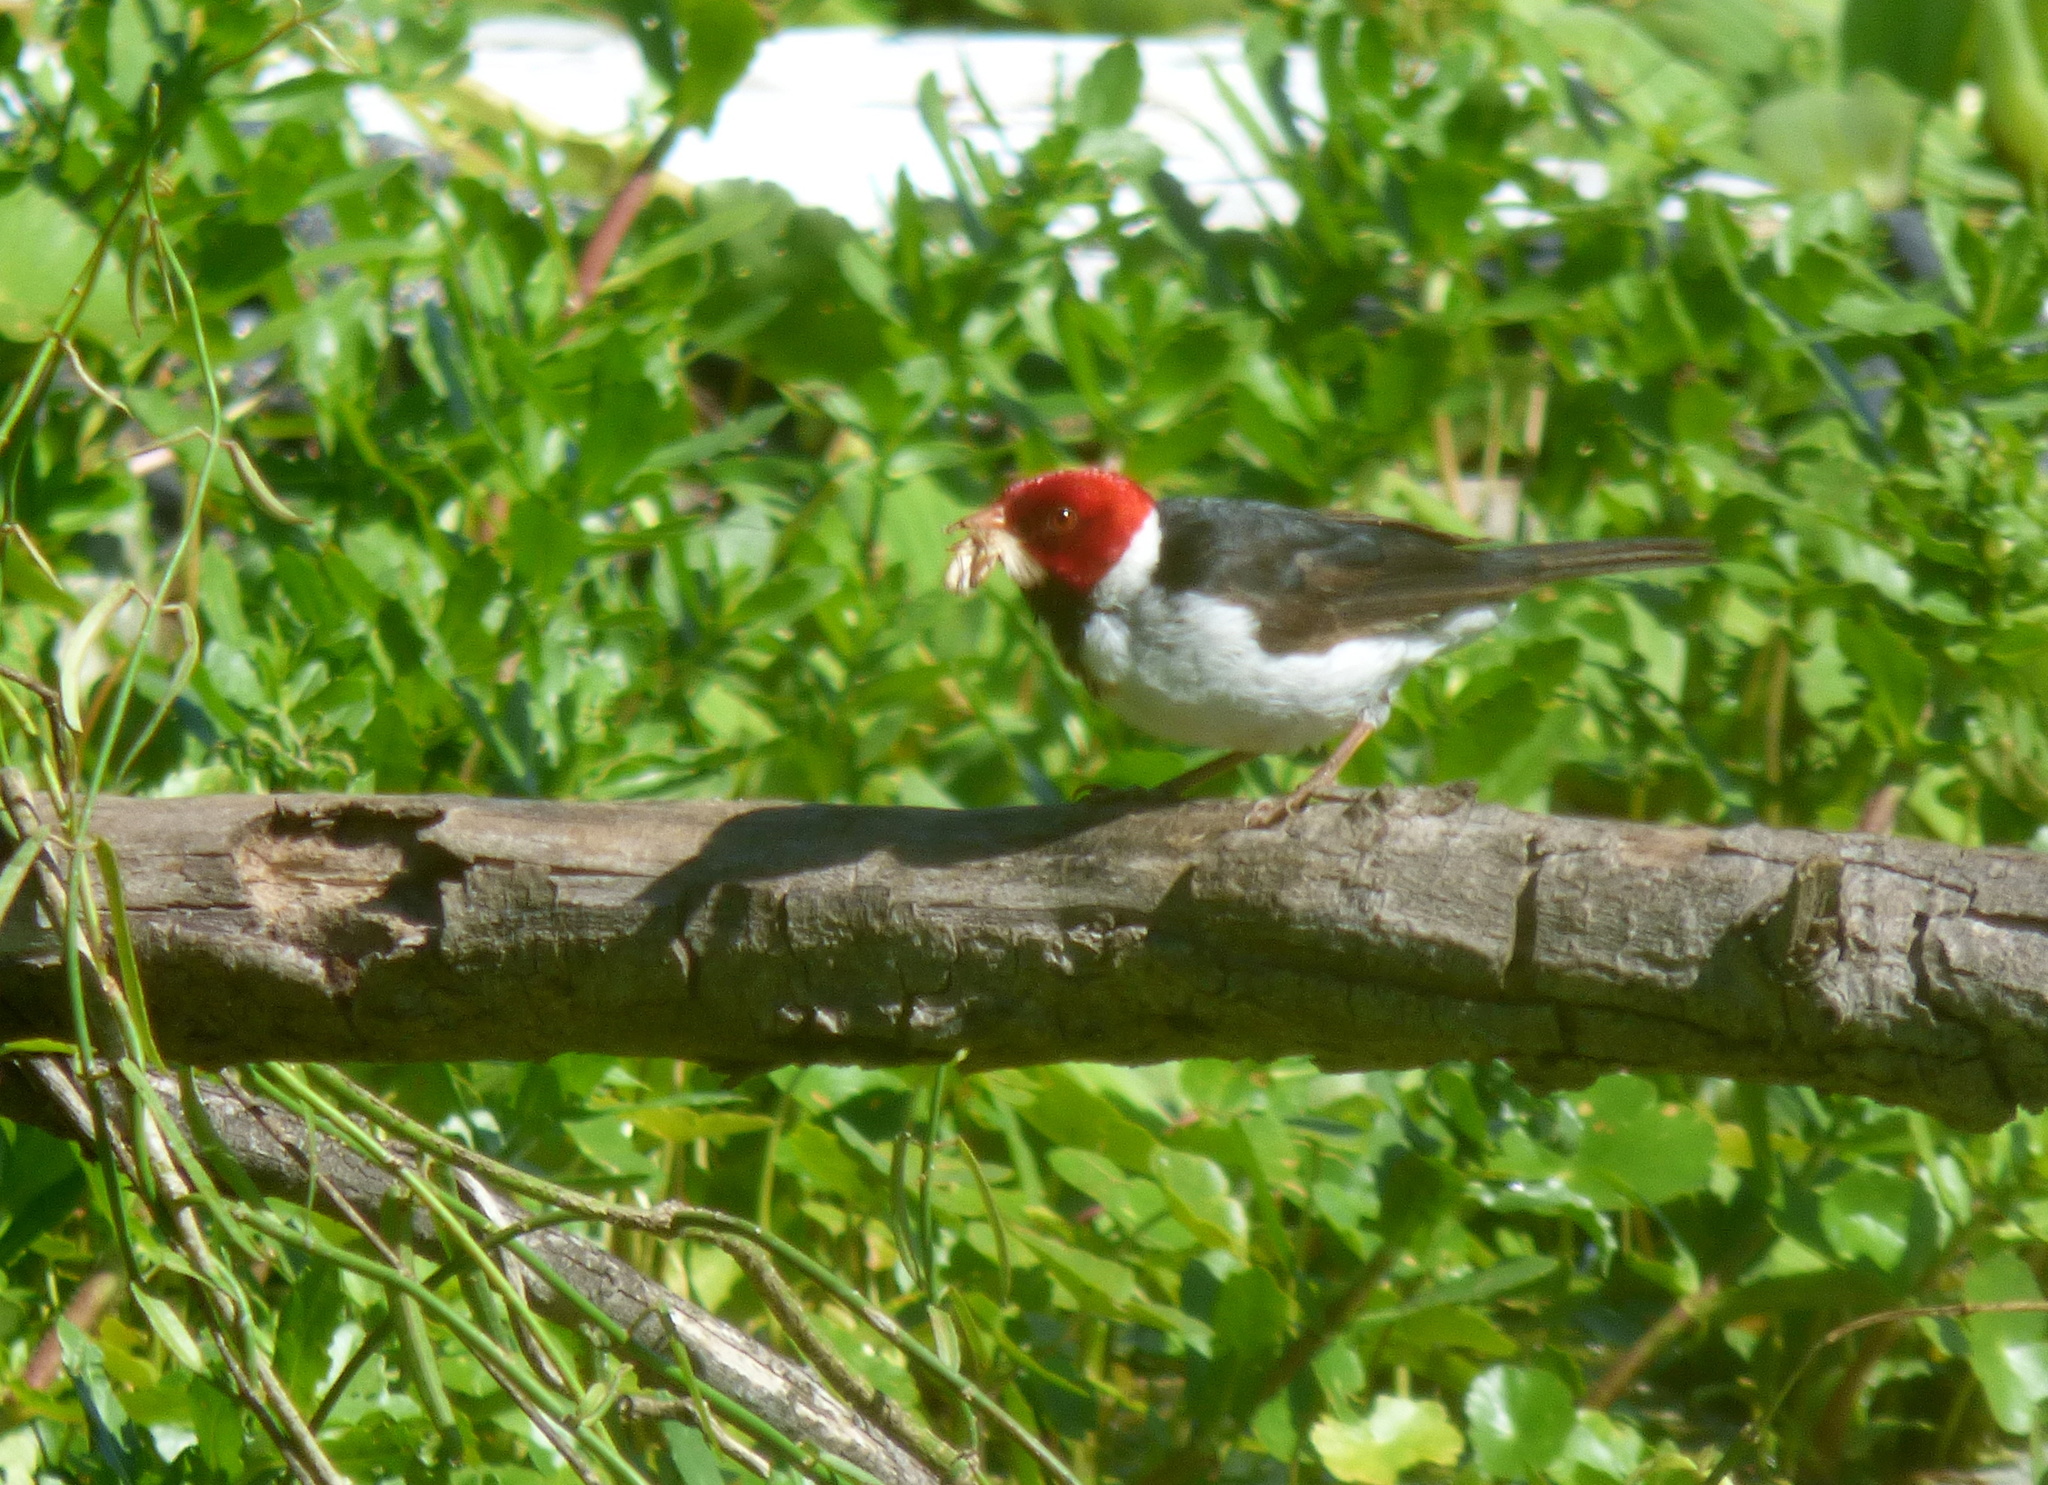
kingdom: Animalia
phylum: Chordata
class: Aves
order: Passeriformes
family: Thraupidae
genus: Paroaria
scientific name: Paroaria capitata
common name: Yellow-billed cardinal
